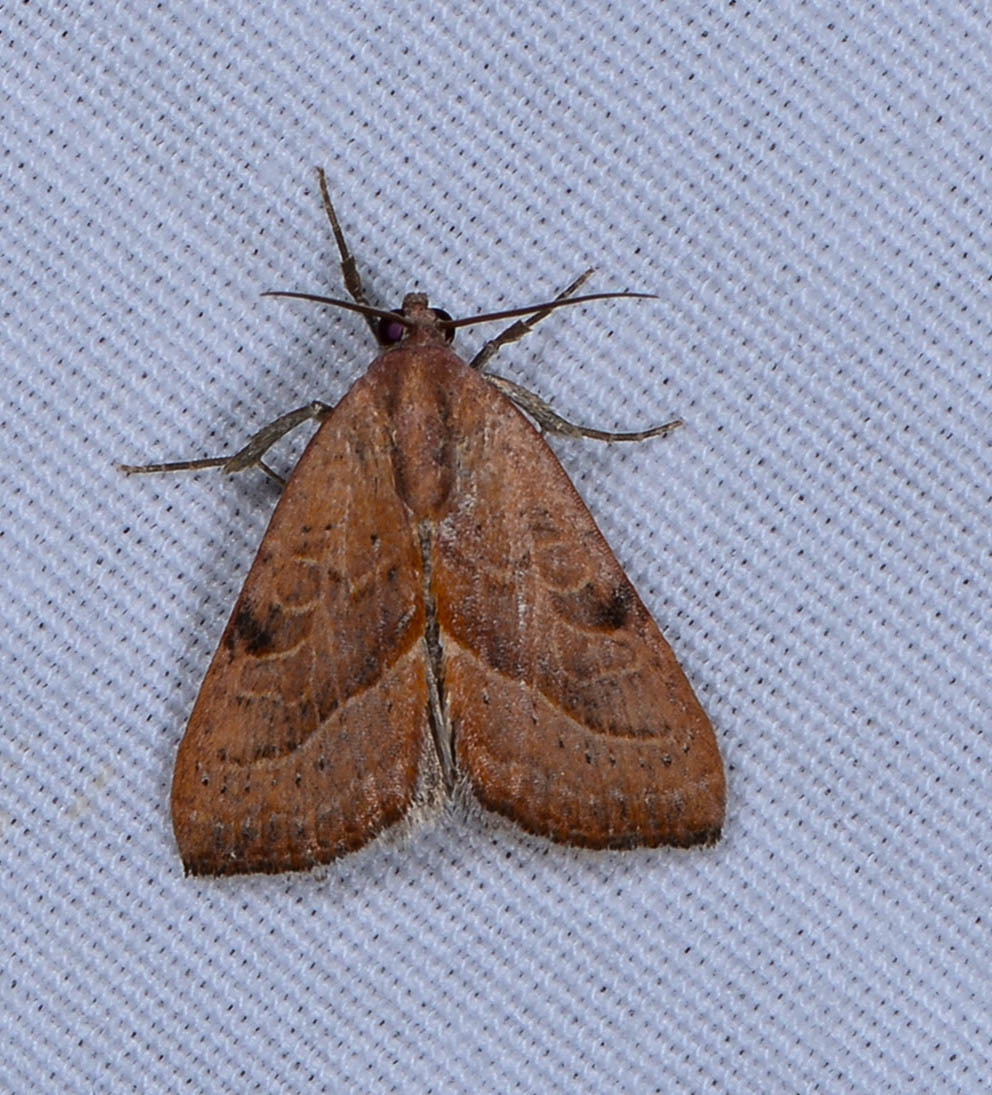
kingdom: Animalia
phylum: Arthropoda
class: Insecta
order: Lepidoptera
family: Noctuidae
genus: Galgula
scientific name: Galgula partita
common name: Wedgeling
